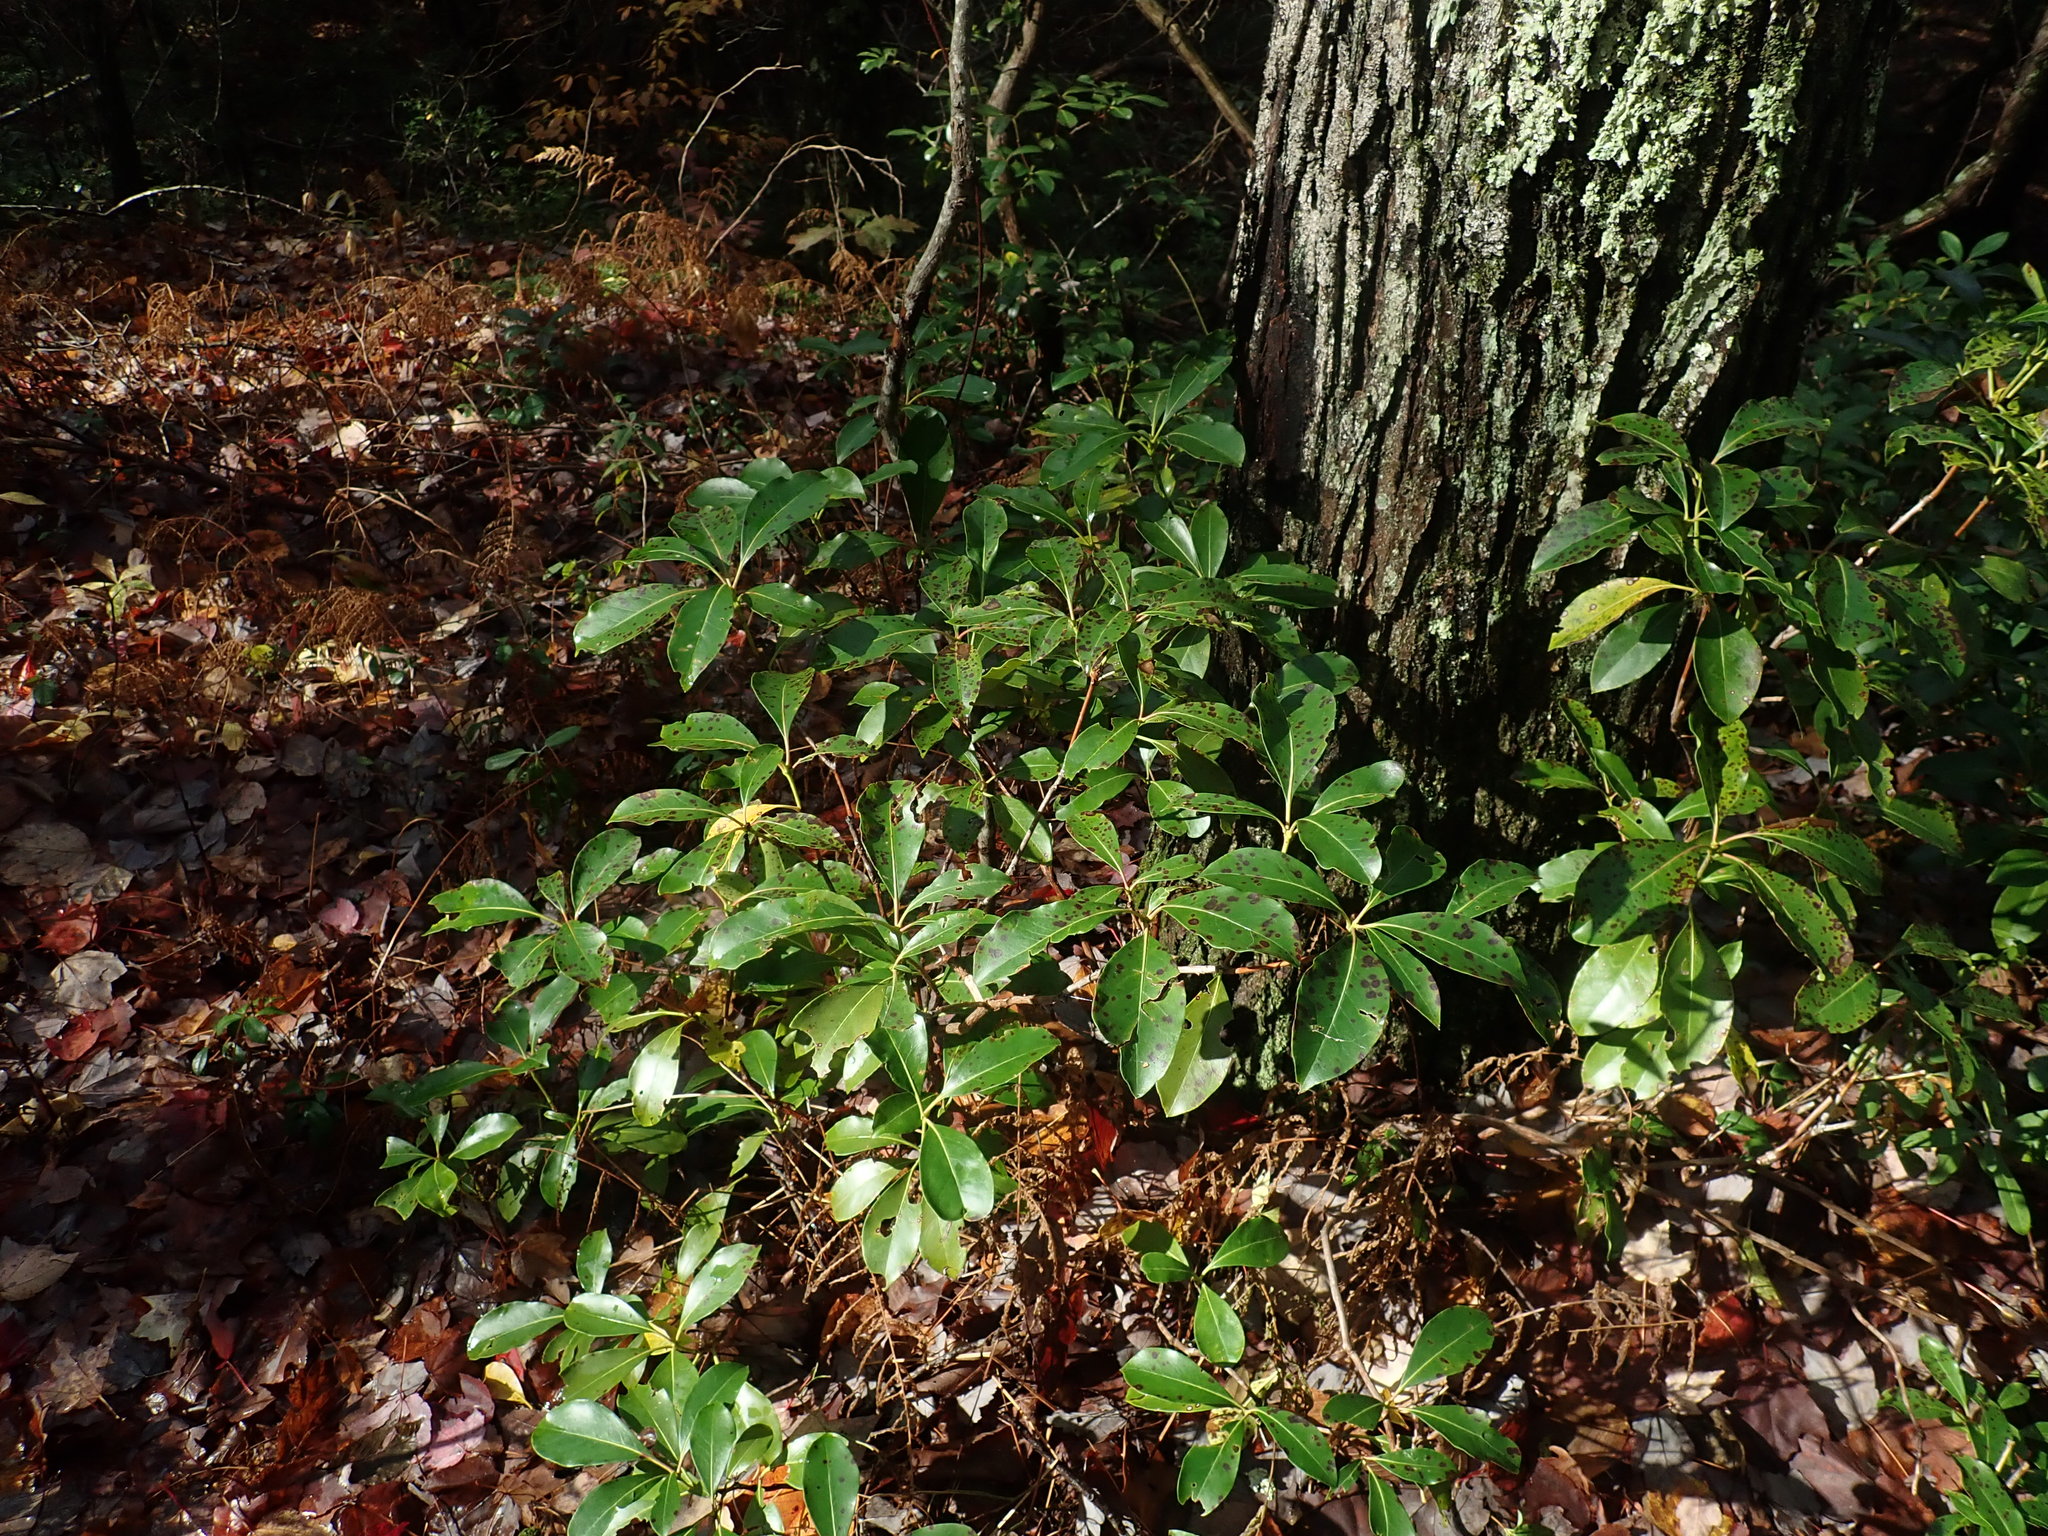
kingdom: Plantae
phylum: Tracheophyta
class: Magnoliopsida
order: Ericales
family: Ericaceae
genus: Kalmia
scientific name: Kalmia latifolia
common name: Mountain-laurel
